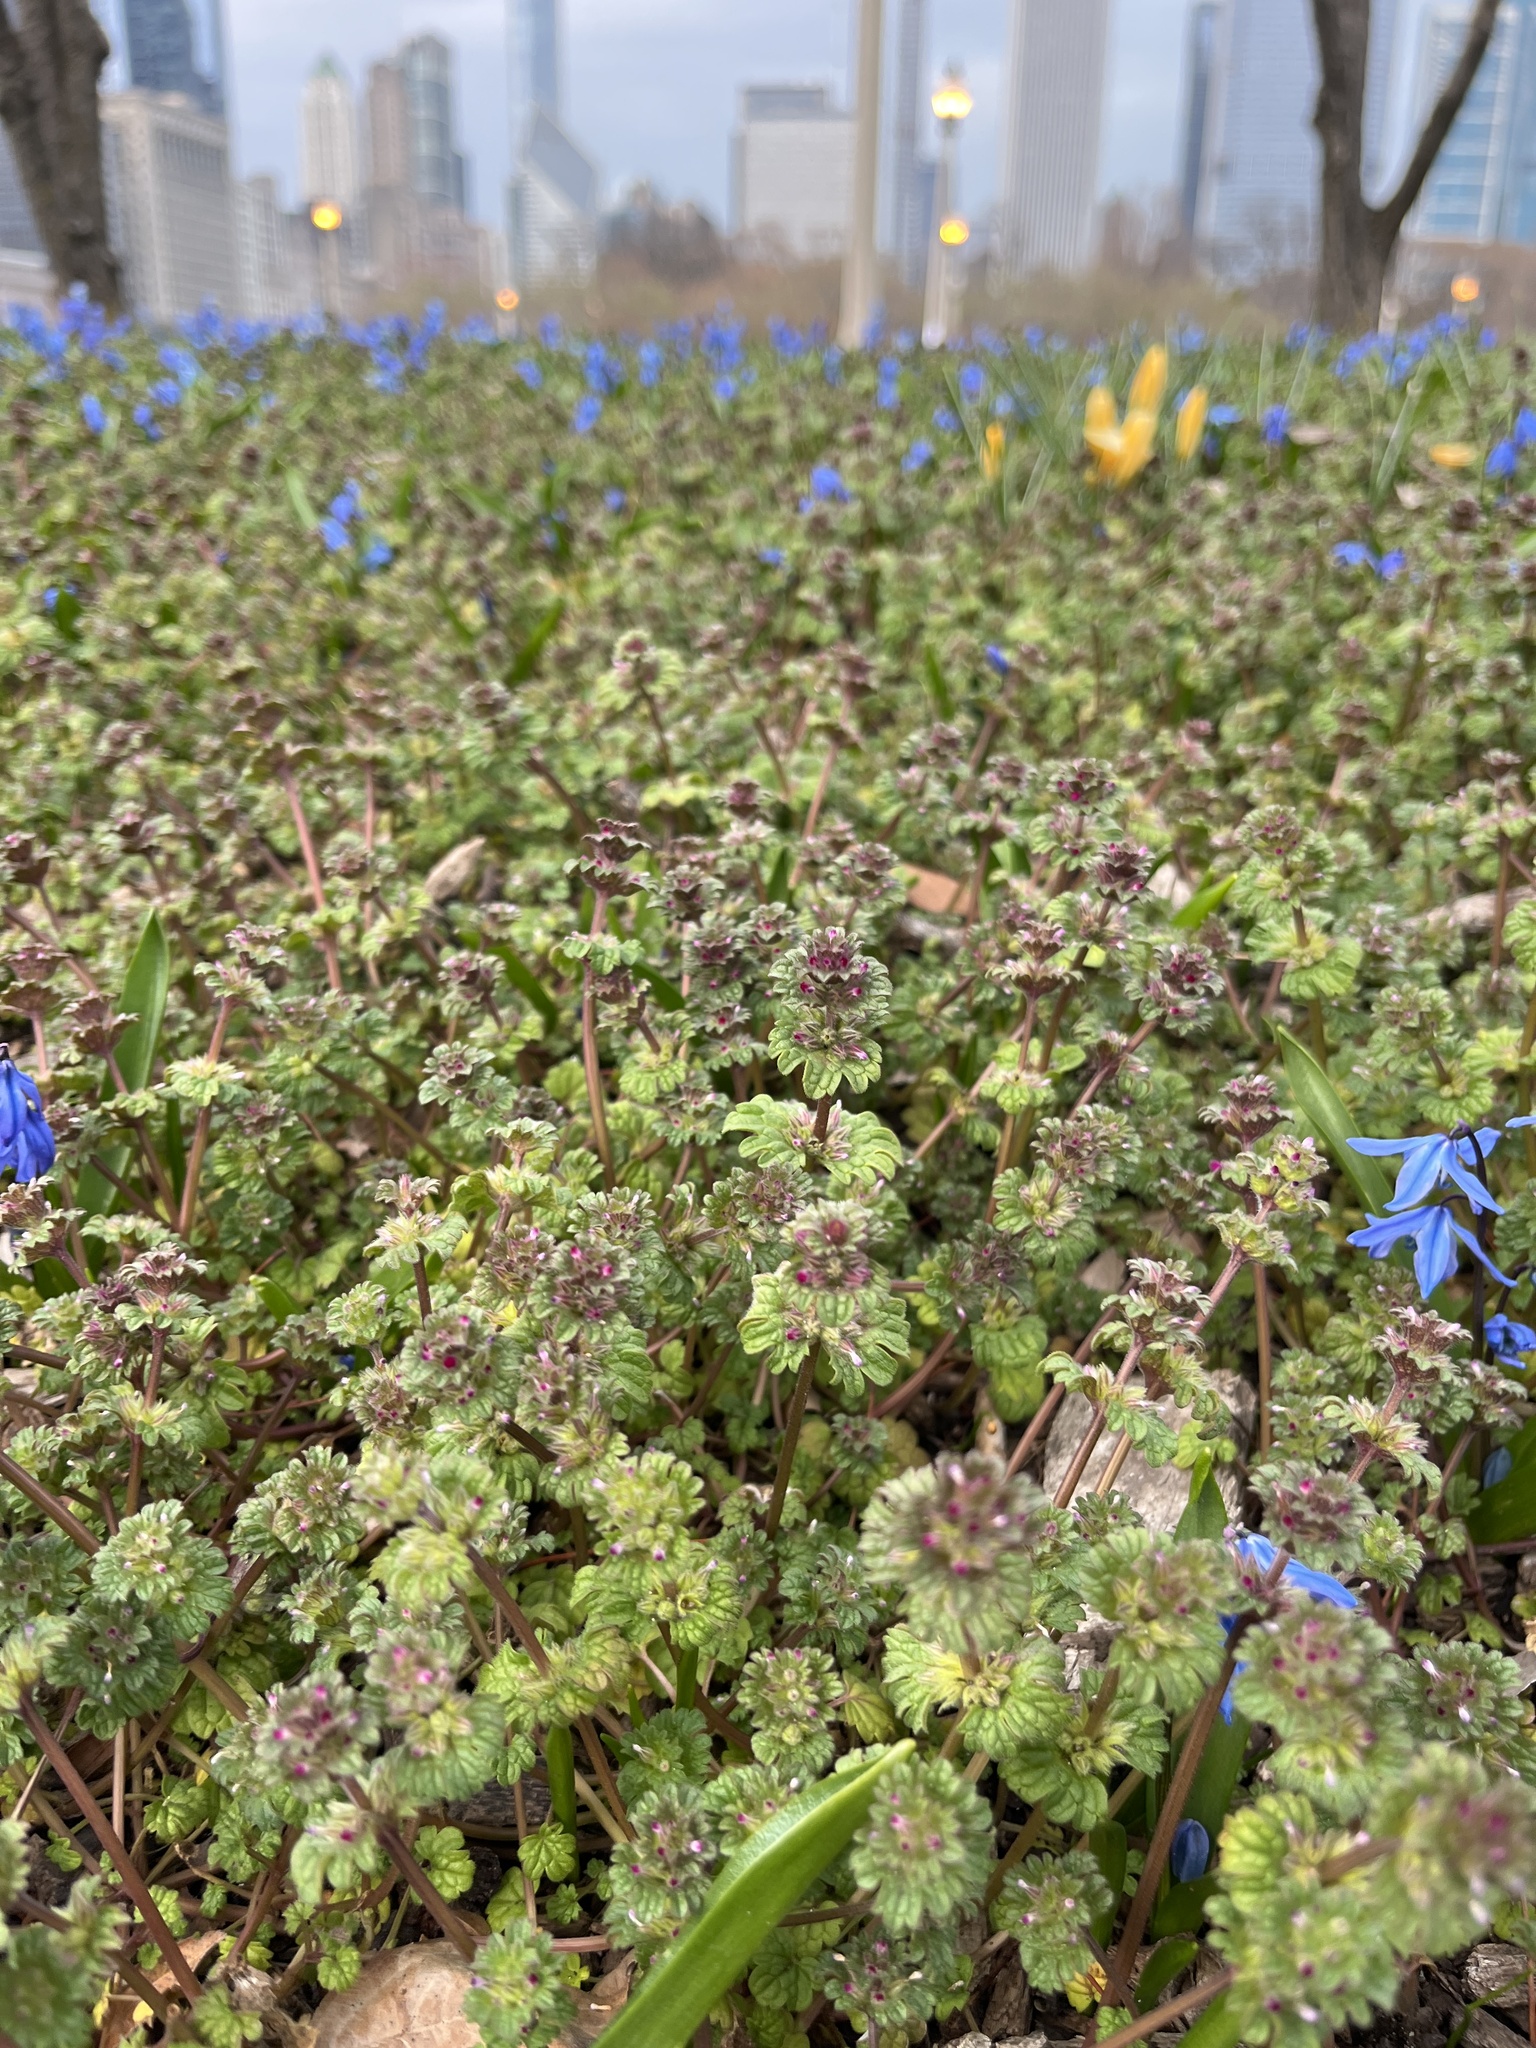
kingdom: Plantae
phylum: Tracheophyta
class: Magnoliopsida
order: Lamiales
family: Lamiaceae
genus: Lamium
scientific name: Lamium amplexicaule
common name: Henbit dead-nettle
